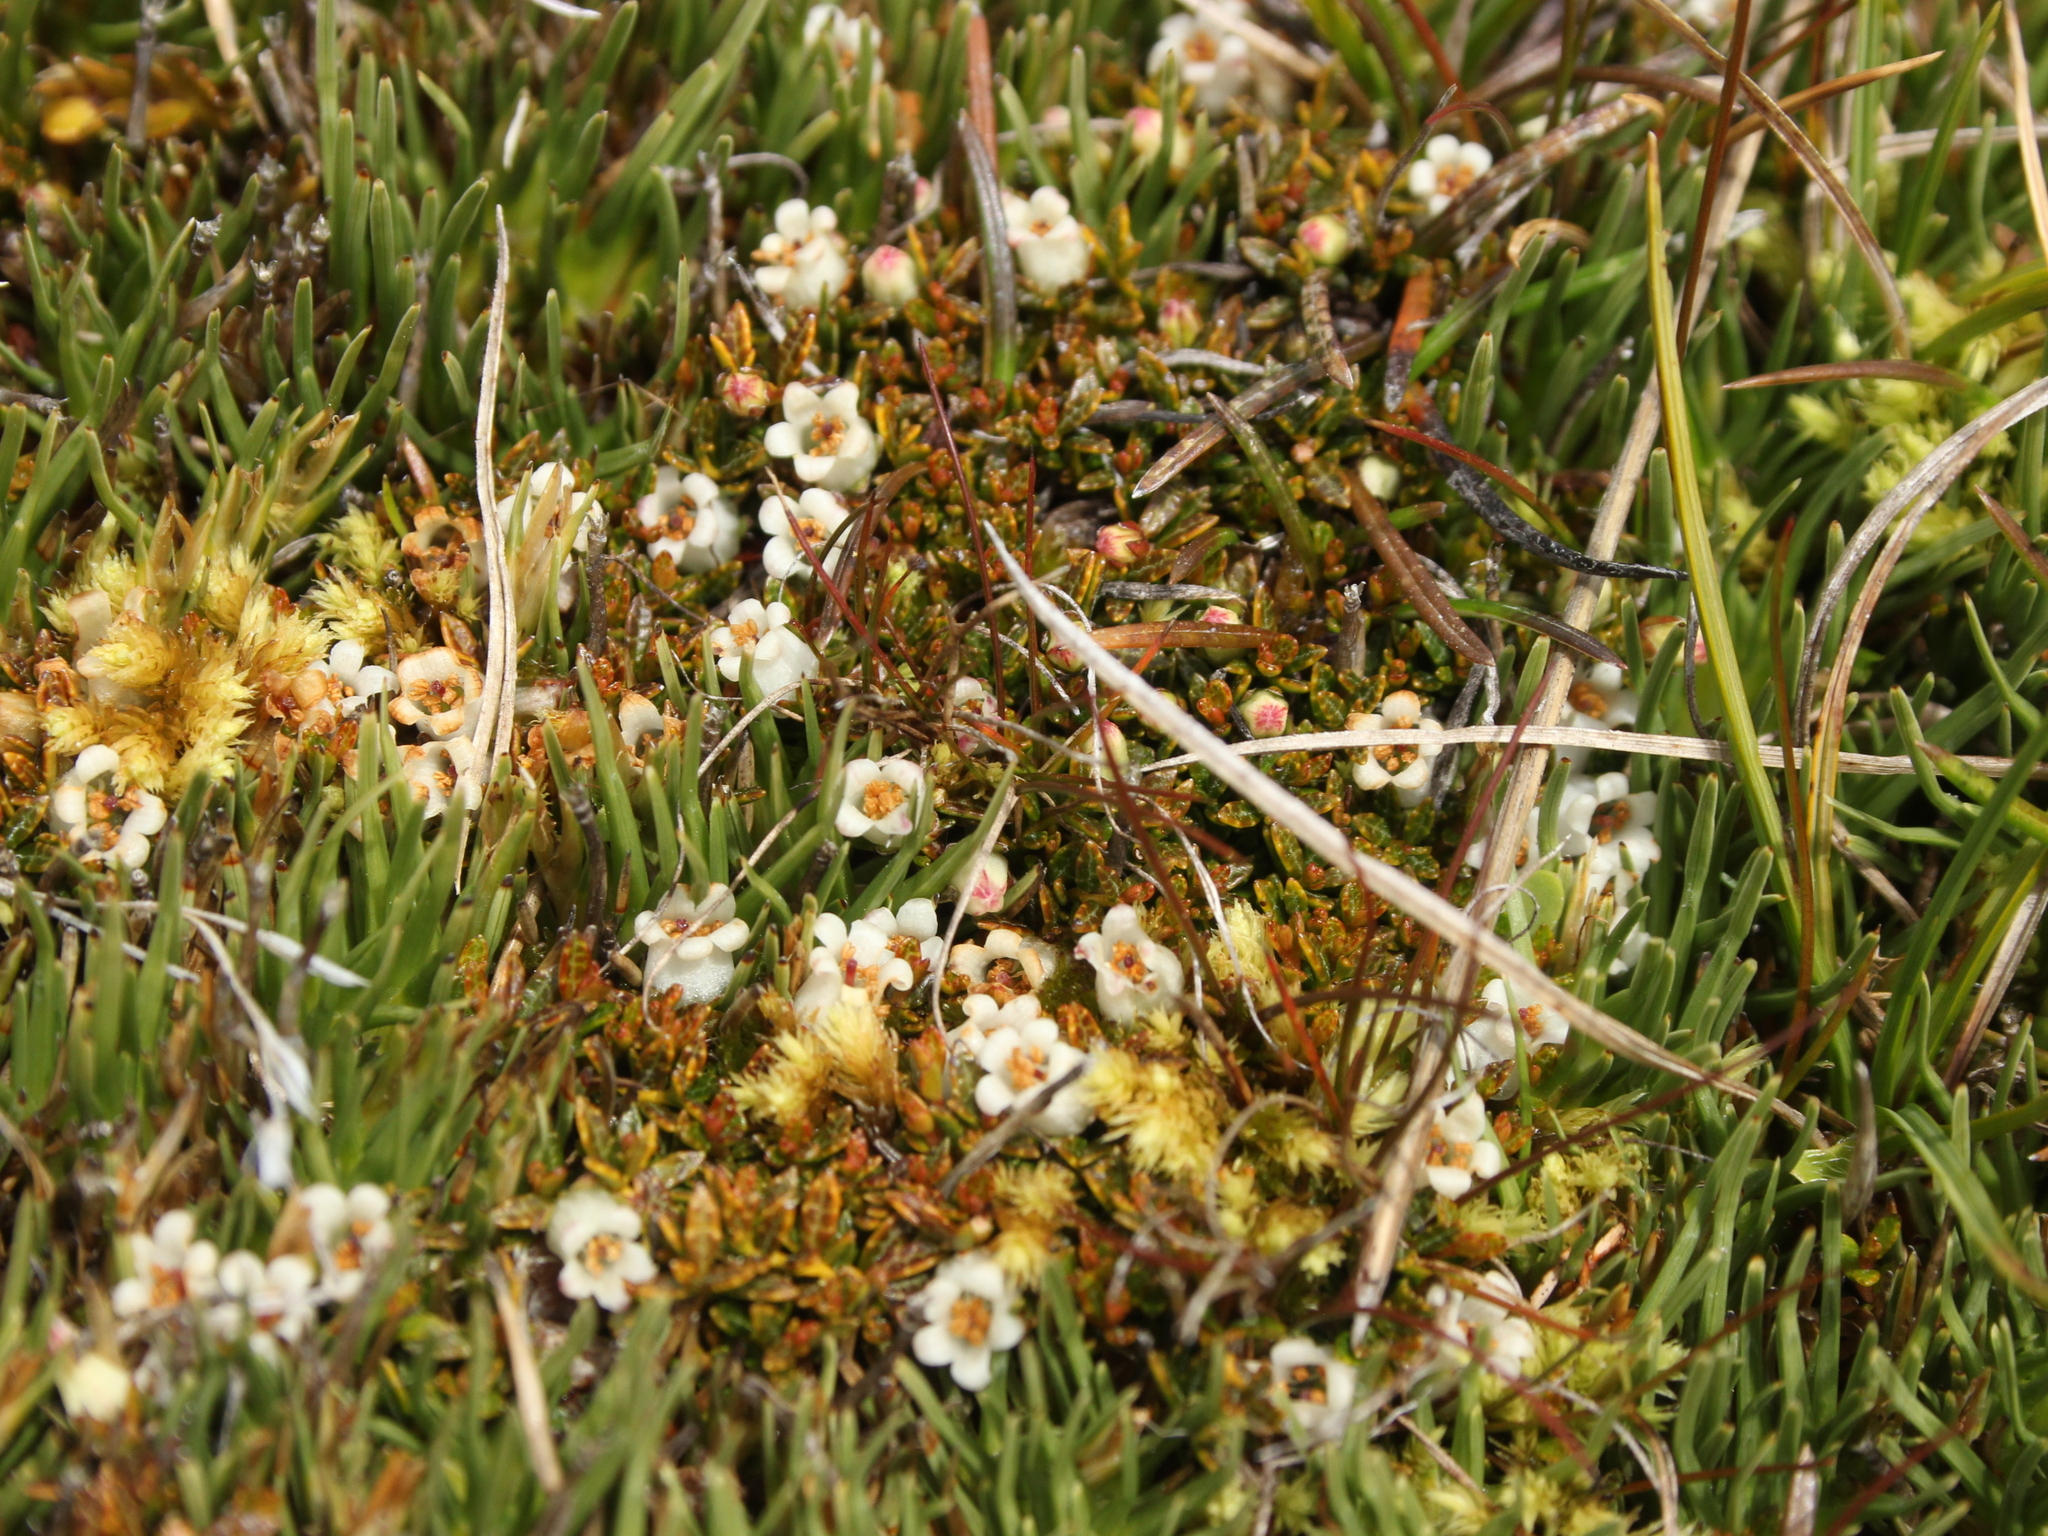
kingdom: Plantae
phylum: Tracheophyta
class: Magnoliopsida
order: Ericales
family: Ericaceae
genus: Gaultheria
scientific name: Gaultheria parvula
